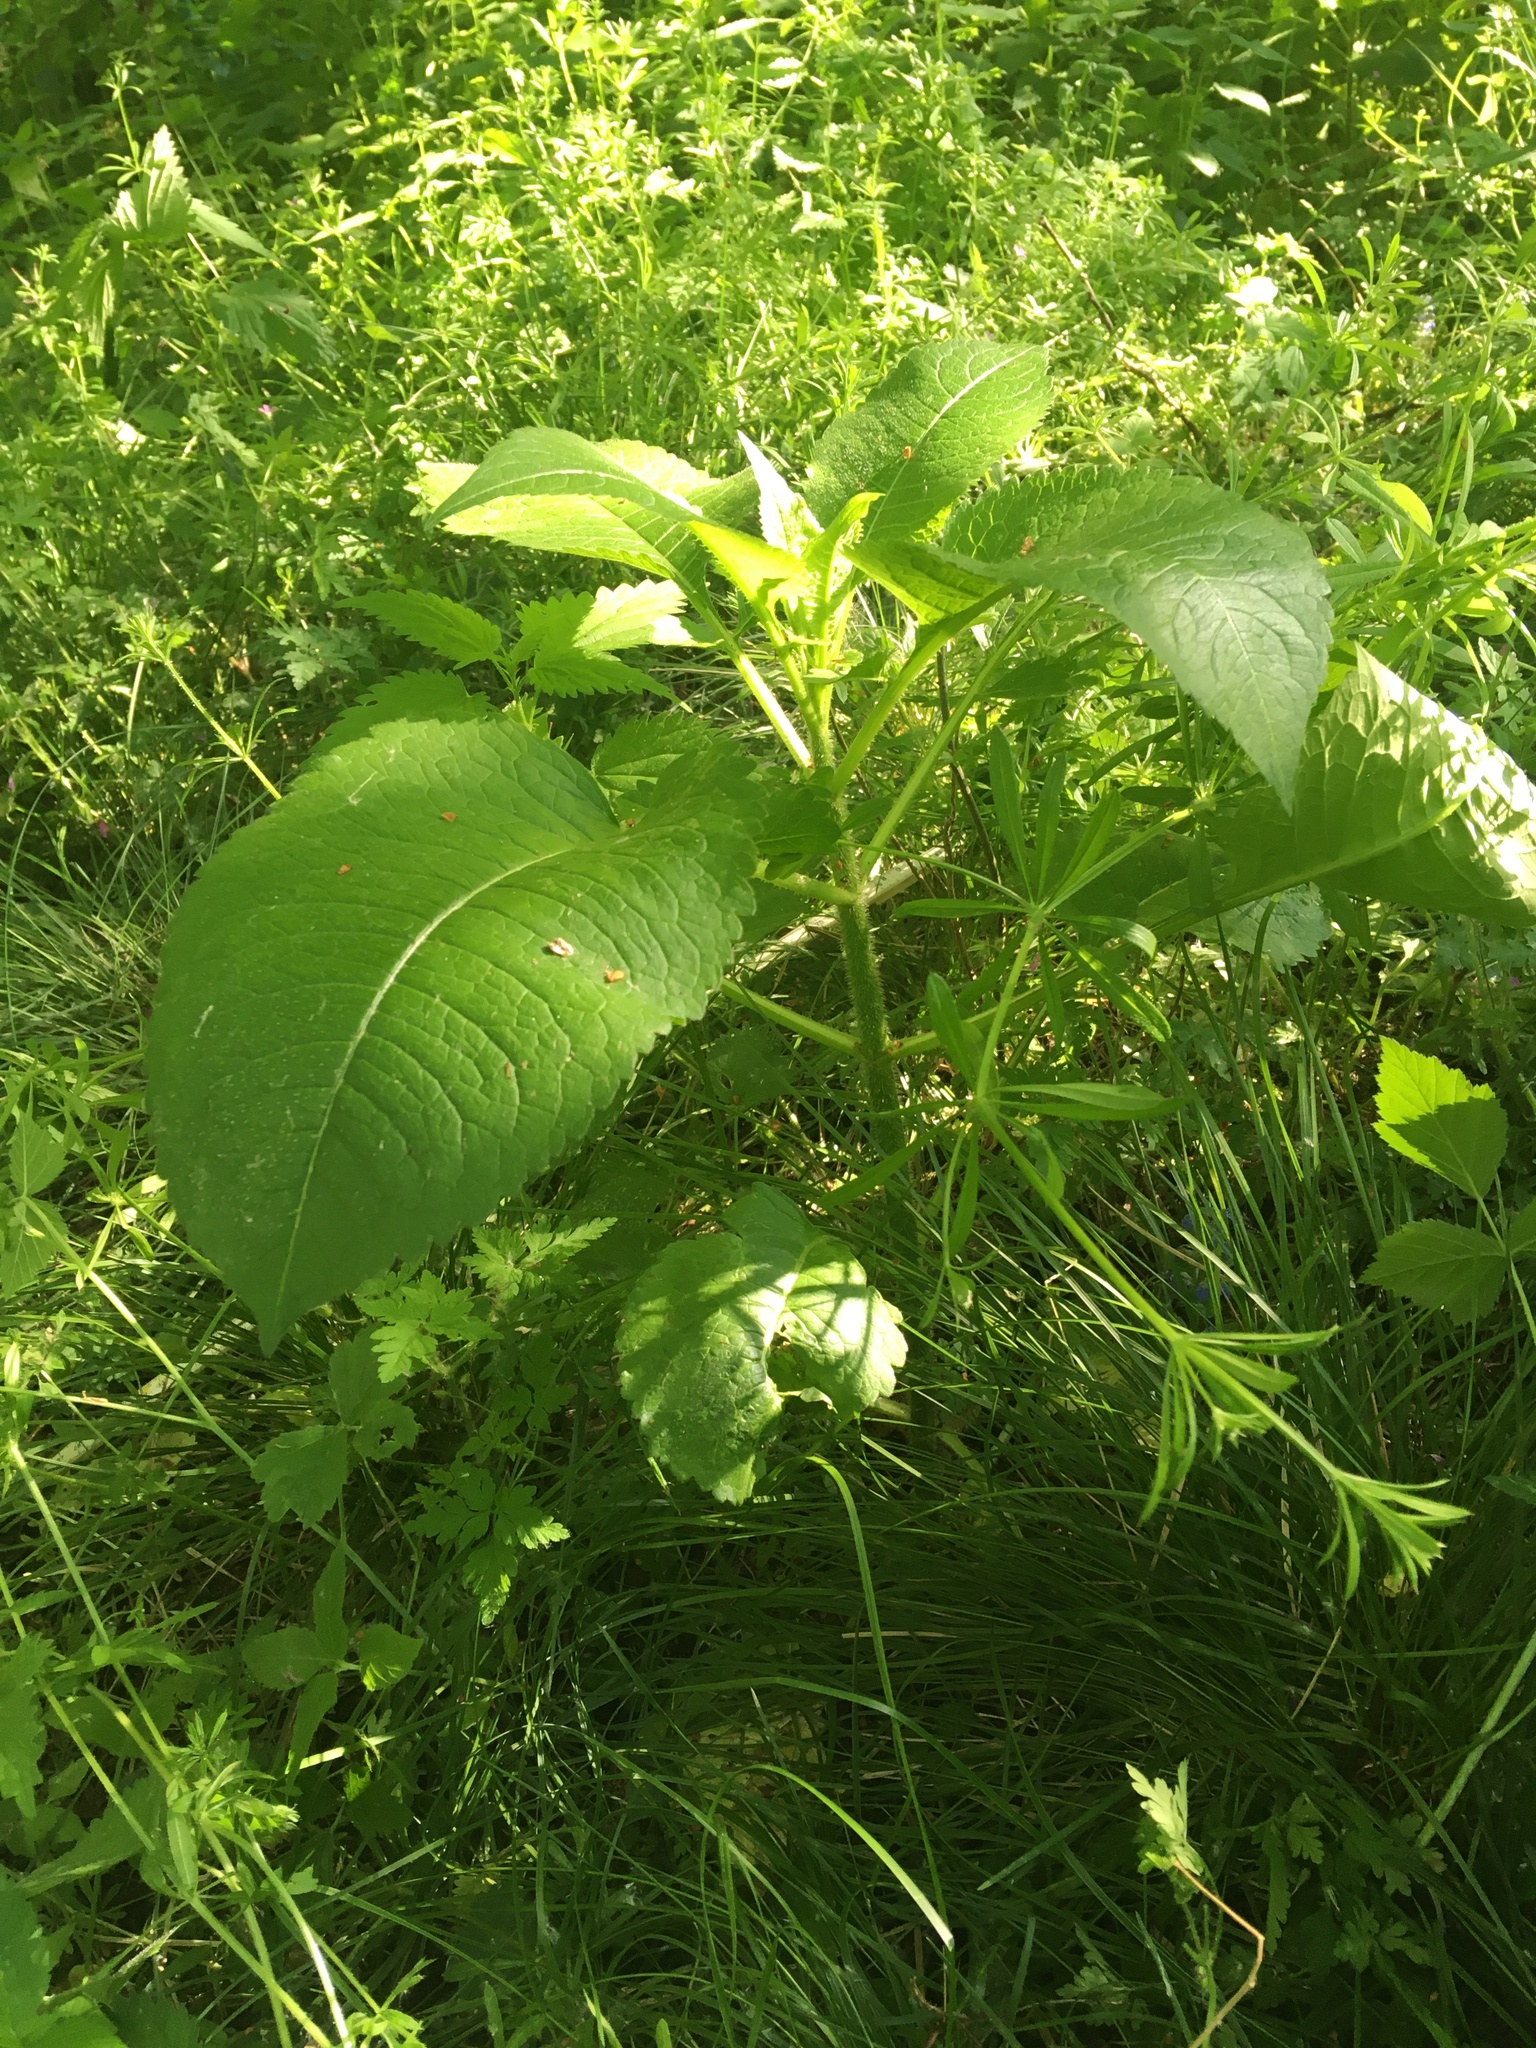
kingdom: Plantae
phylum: Tracheophyta
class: Magnoliopsida
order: Dipsacales
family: Caprifoliaceae
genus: Dipsacus
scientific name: Dipsacus strigosus
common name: Yellow-flowered teasel
